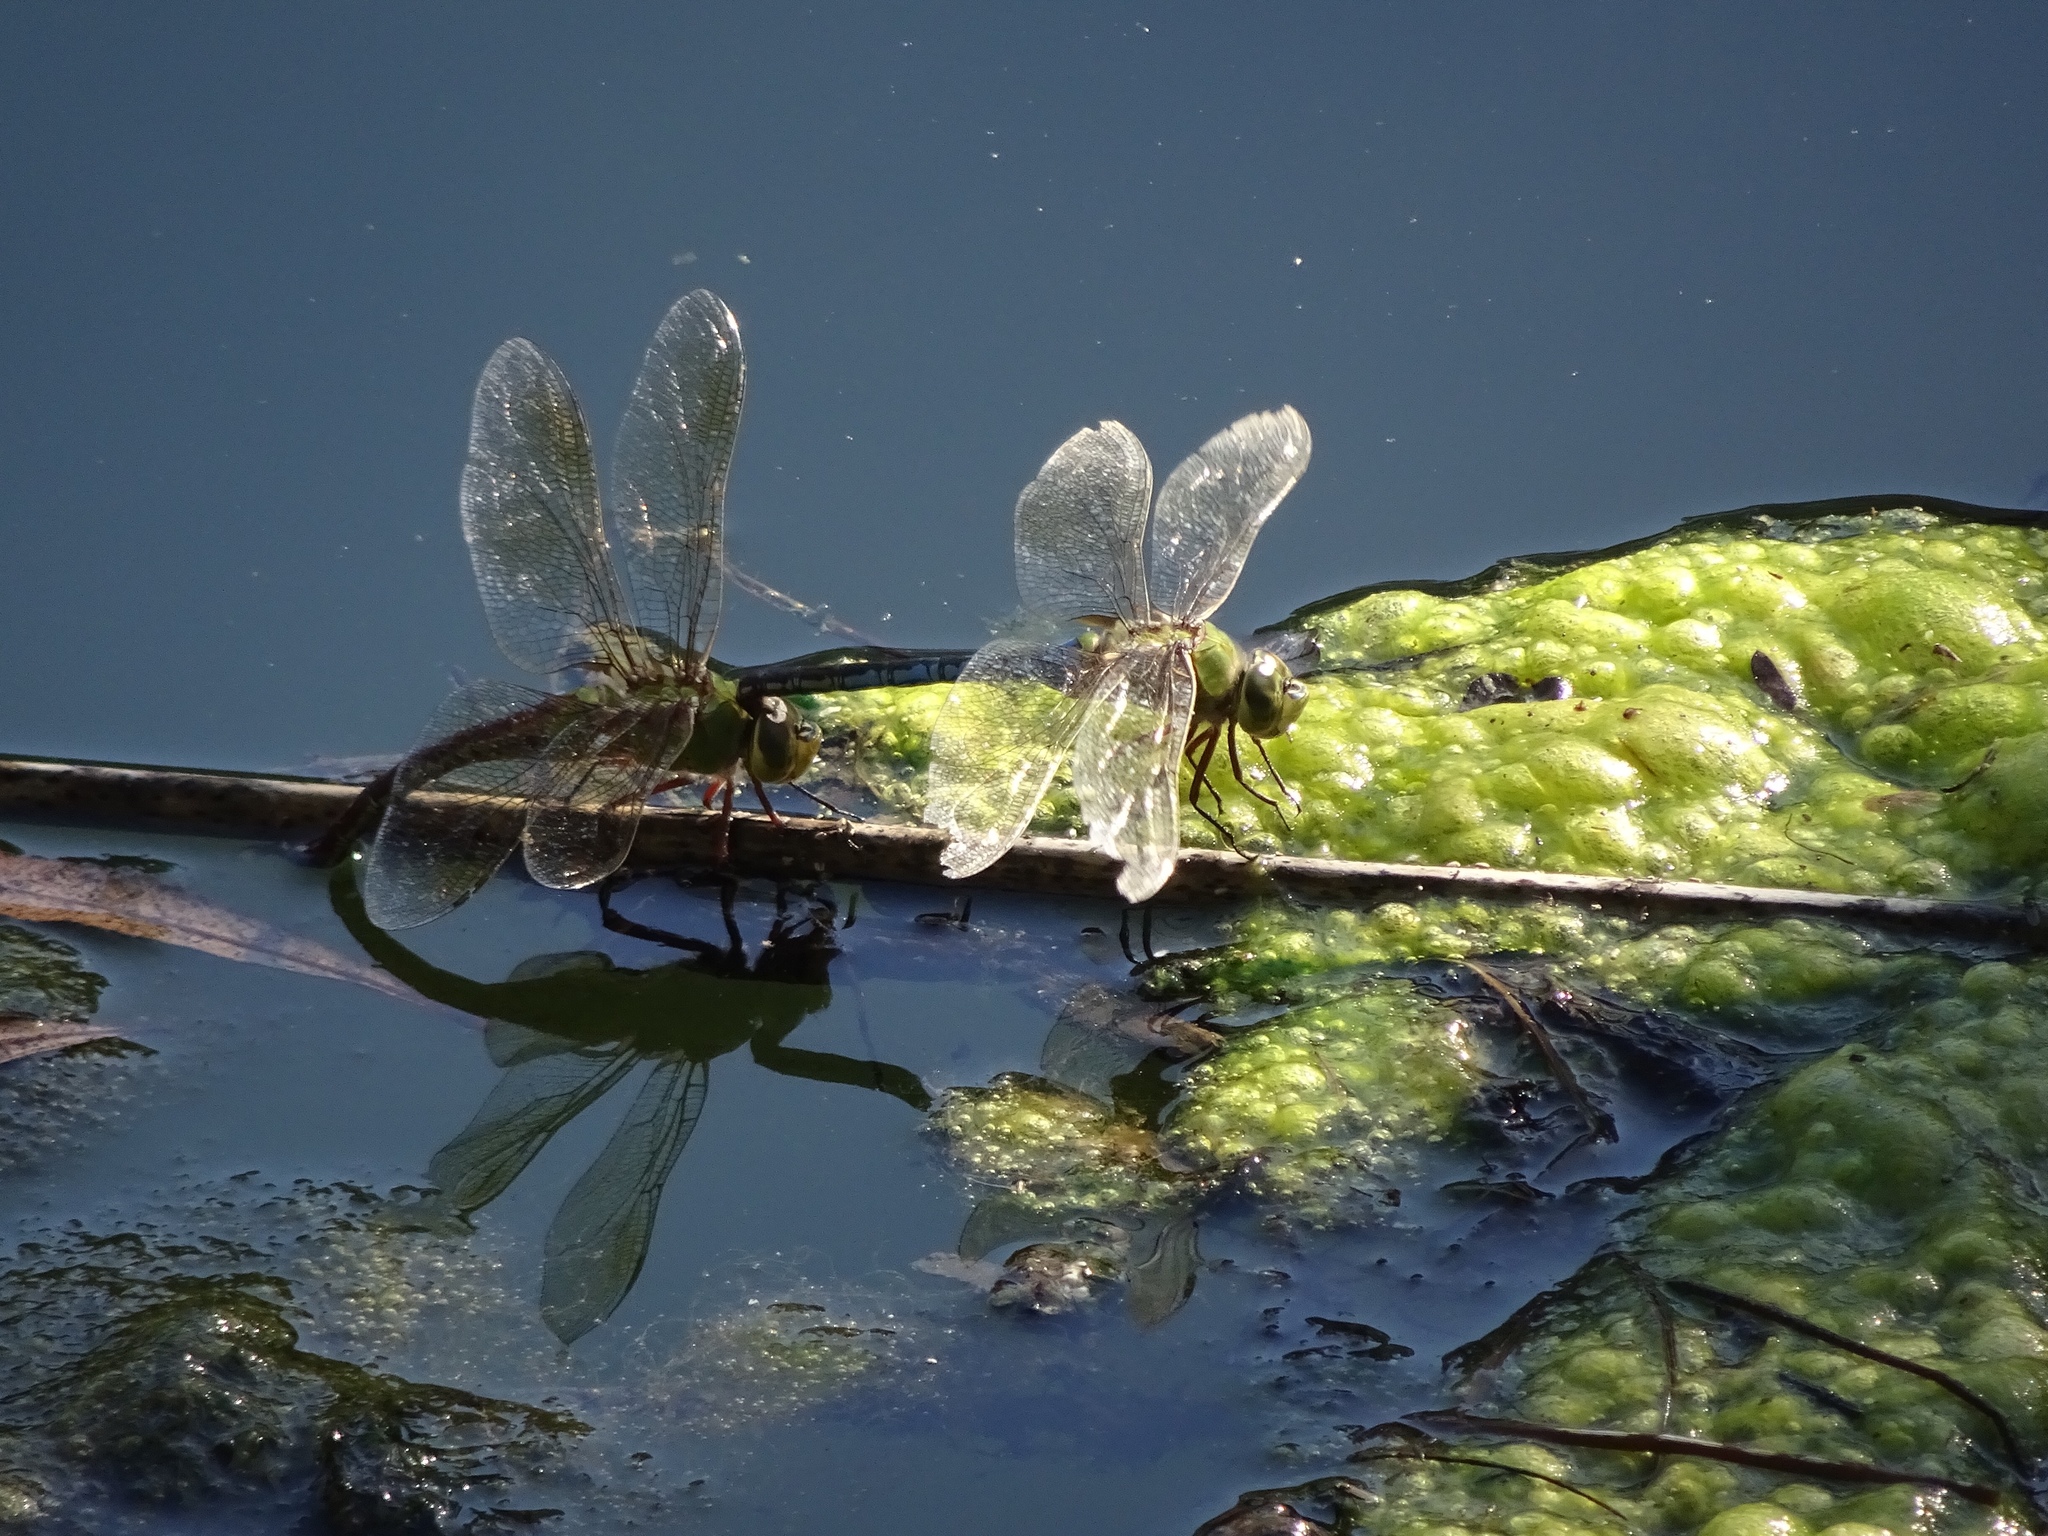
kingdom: Animalia
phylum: Arthropoda
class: Insecta
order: Odonata
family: Aeshnidae
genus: Anax
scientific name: Anax junius
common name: Common green darner
